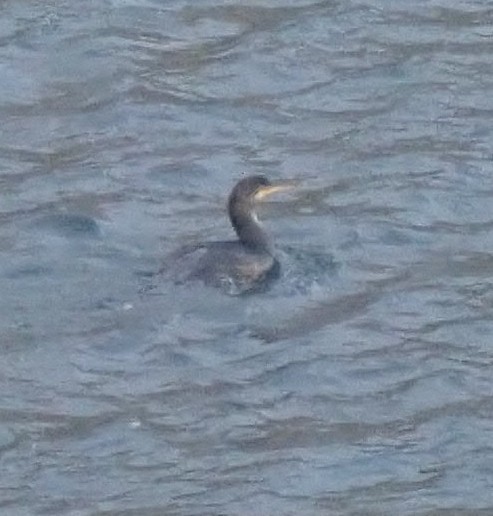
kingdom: Animalia
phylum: Chordata
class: Aves
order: Suliformes
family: Phalacrocoracidae
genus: Phalacrocorax
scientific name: Phalacrocorax carbo
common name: Great cormorant
